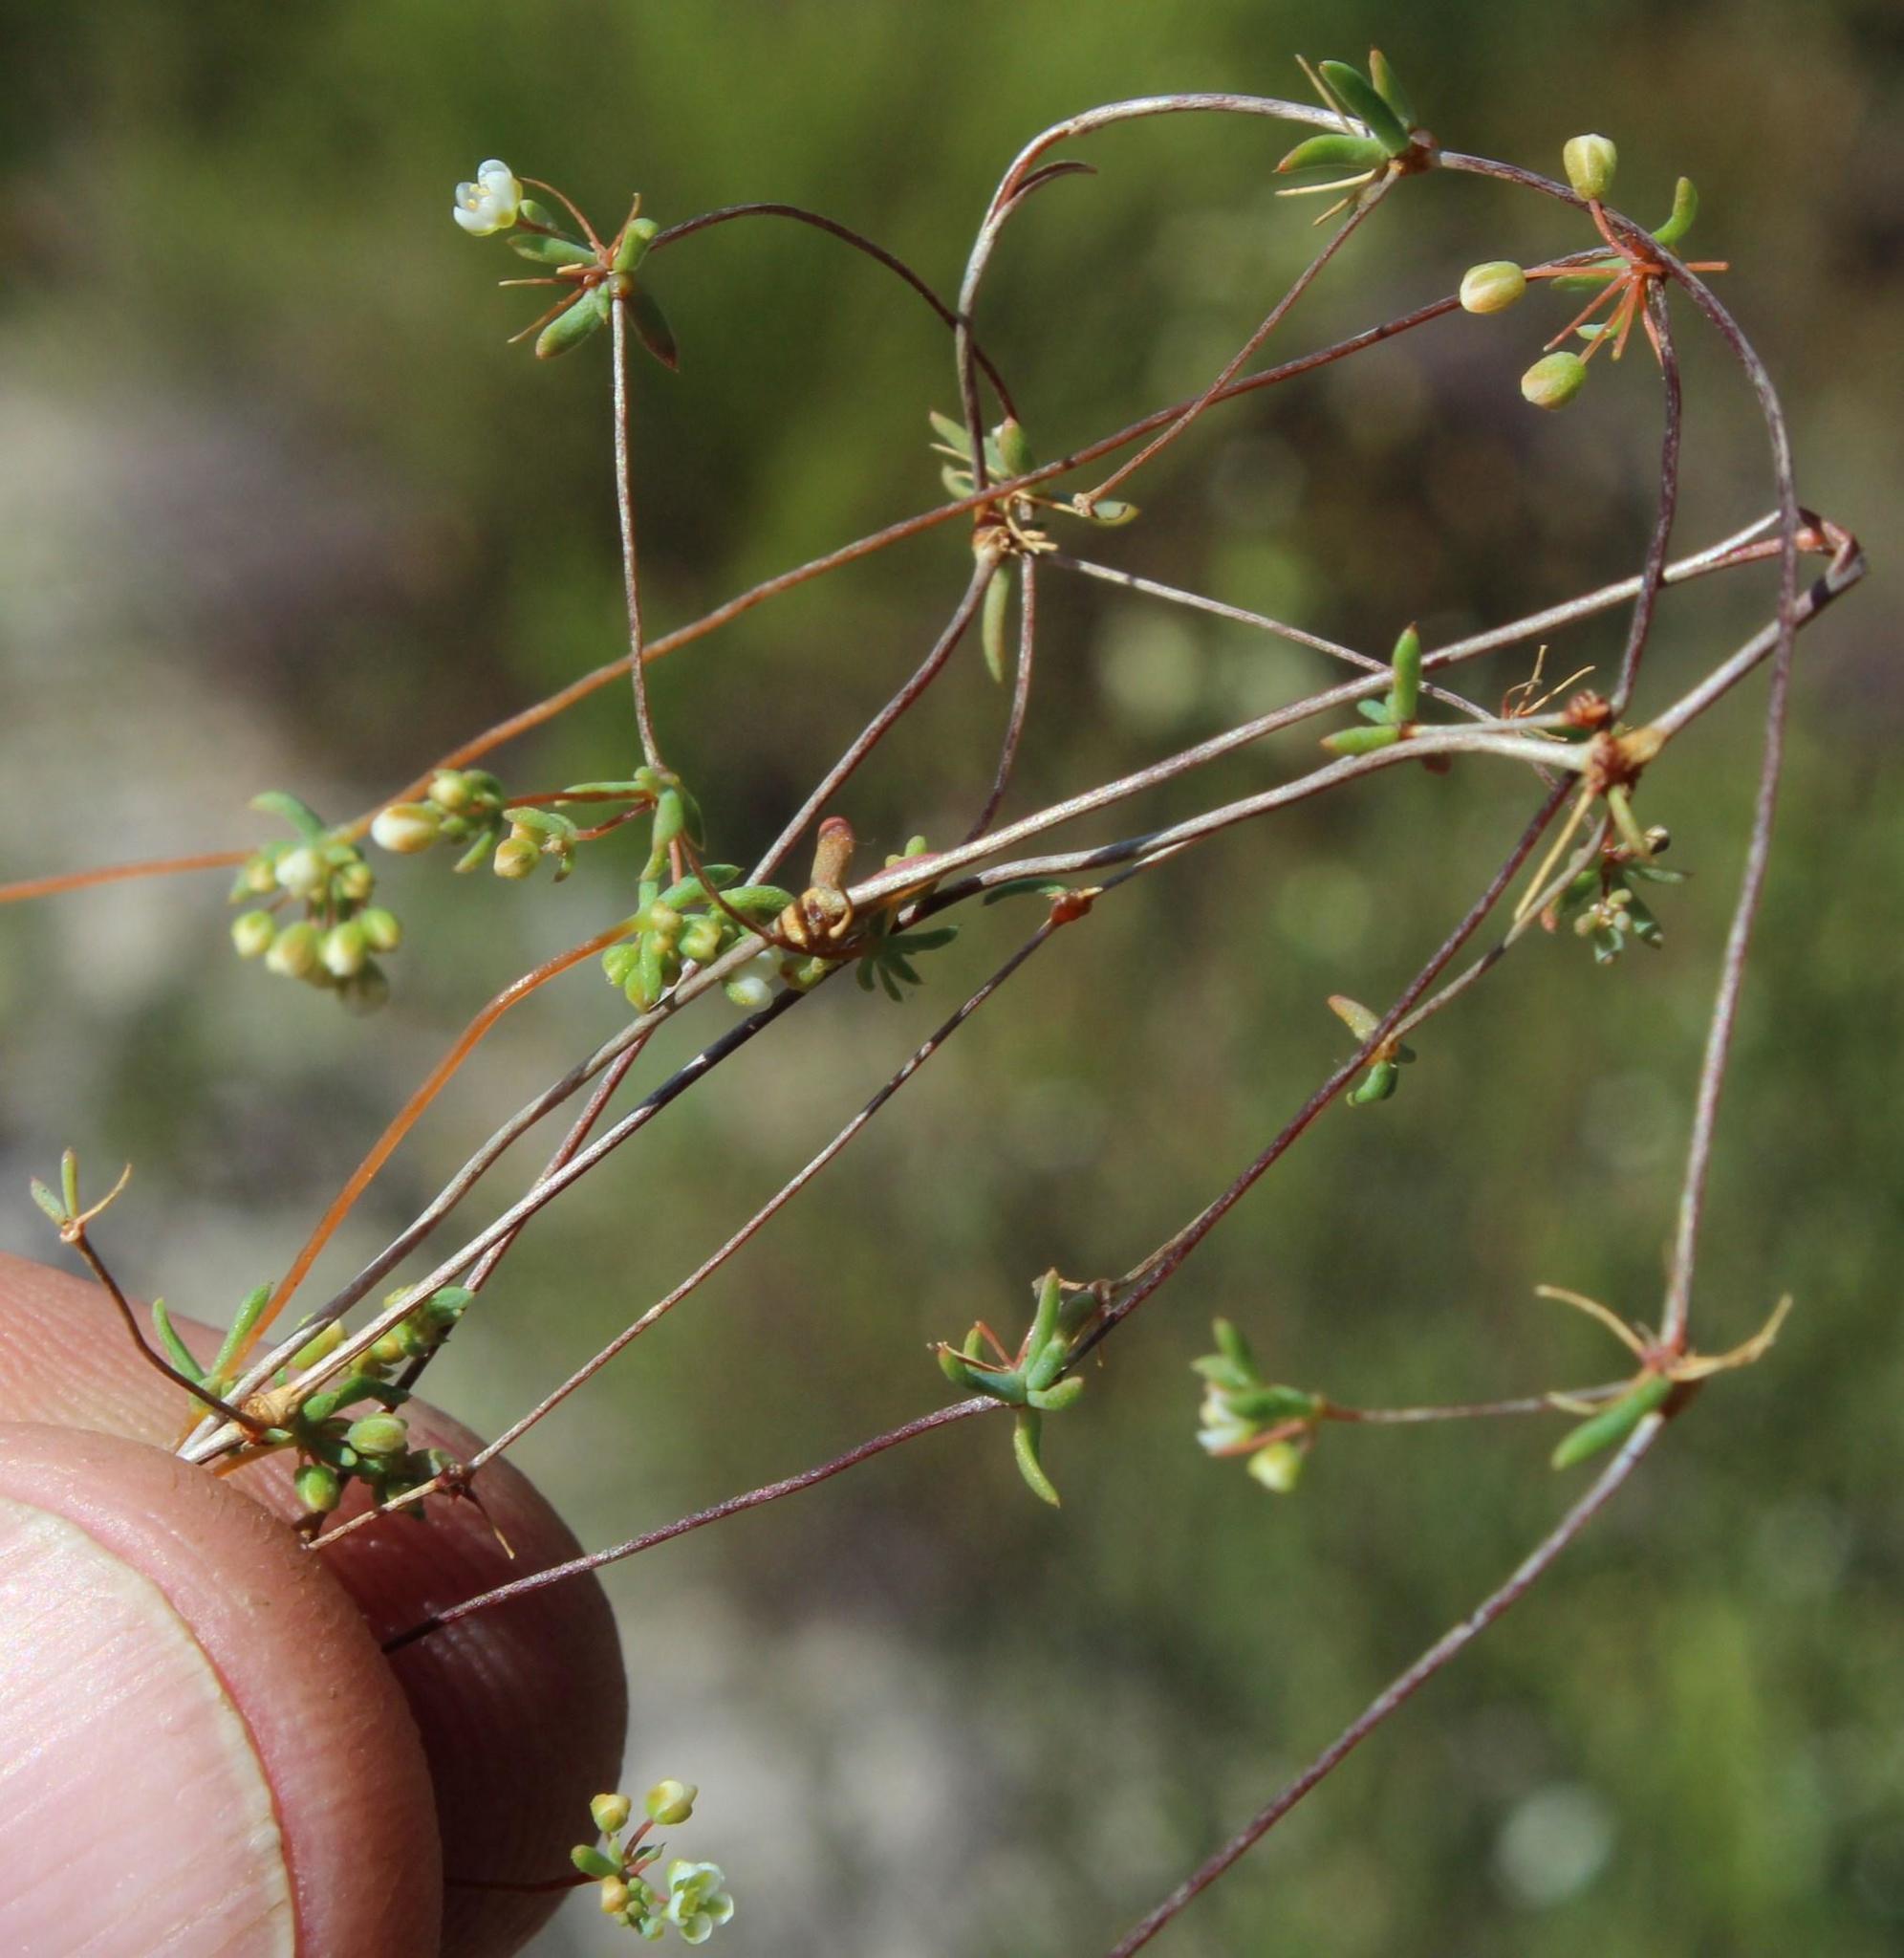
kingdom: Plantae
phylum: Tracheophyta
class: Magnoliopsida
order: Caryophyllales
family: Molluginaceae
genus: Adenogramma
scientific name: Adenogramma lichtensteiniana
